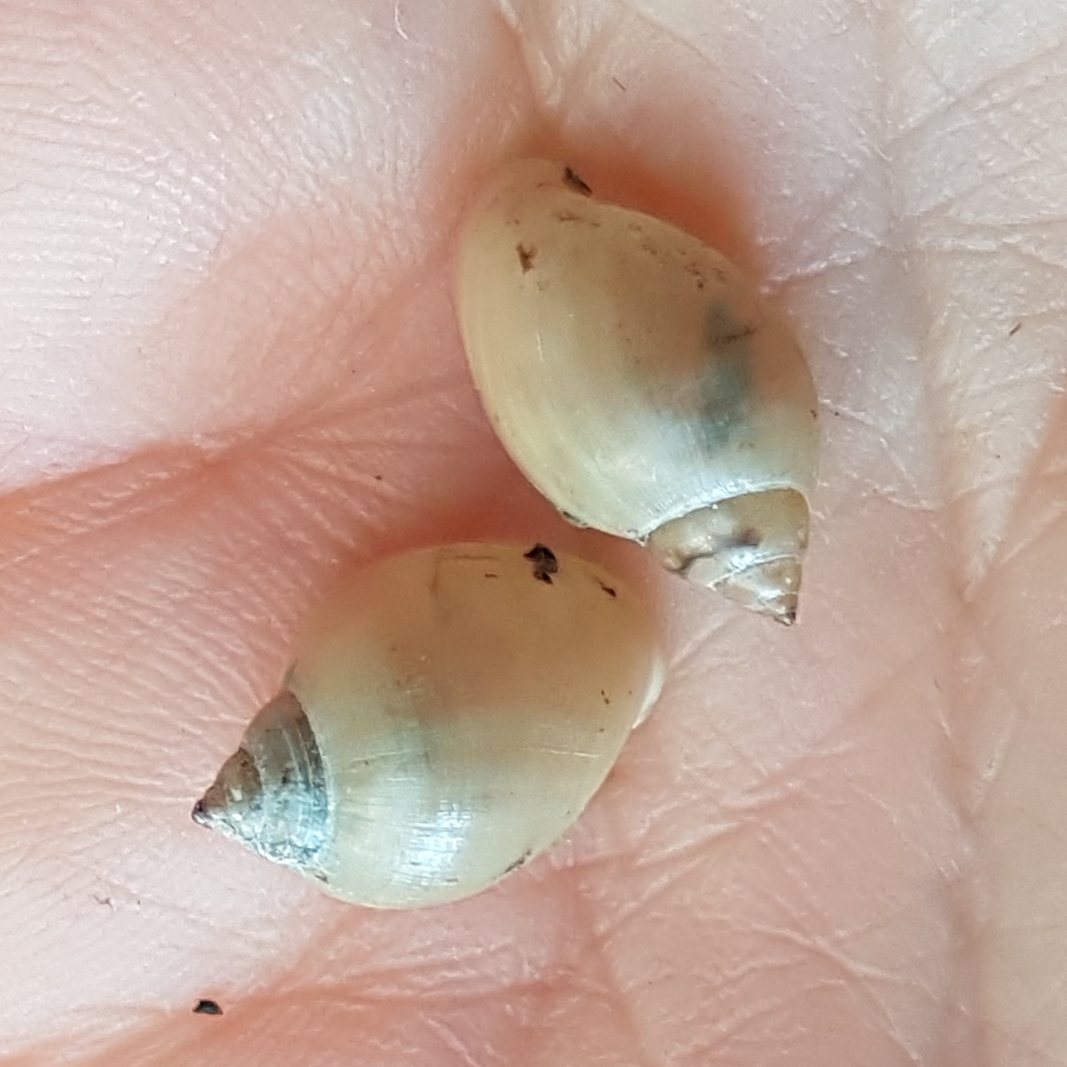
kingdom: Animalia
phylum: Mollusca
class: Gastropoda
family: Physidae
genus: Physella
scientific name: Physella acuta
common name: European physa
